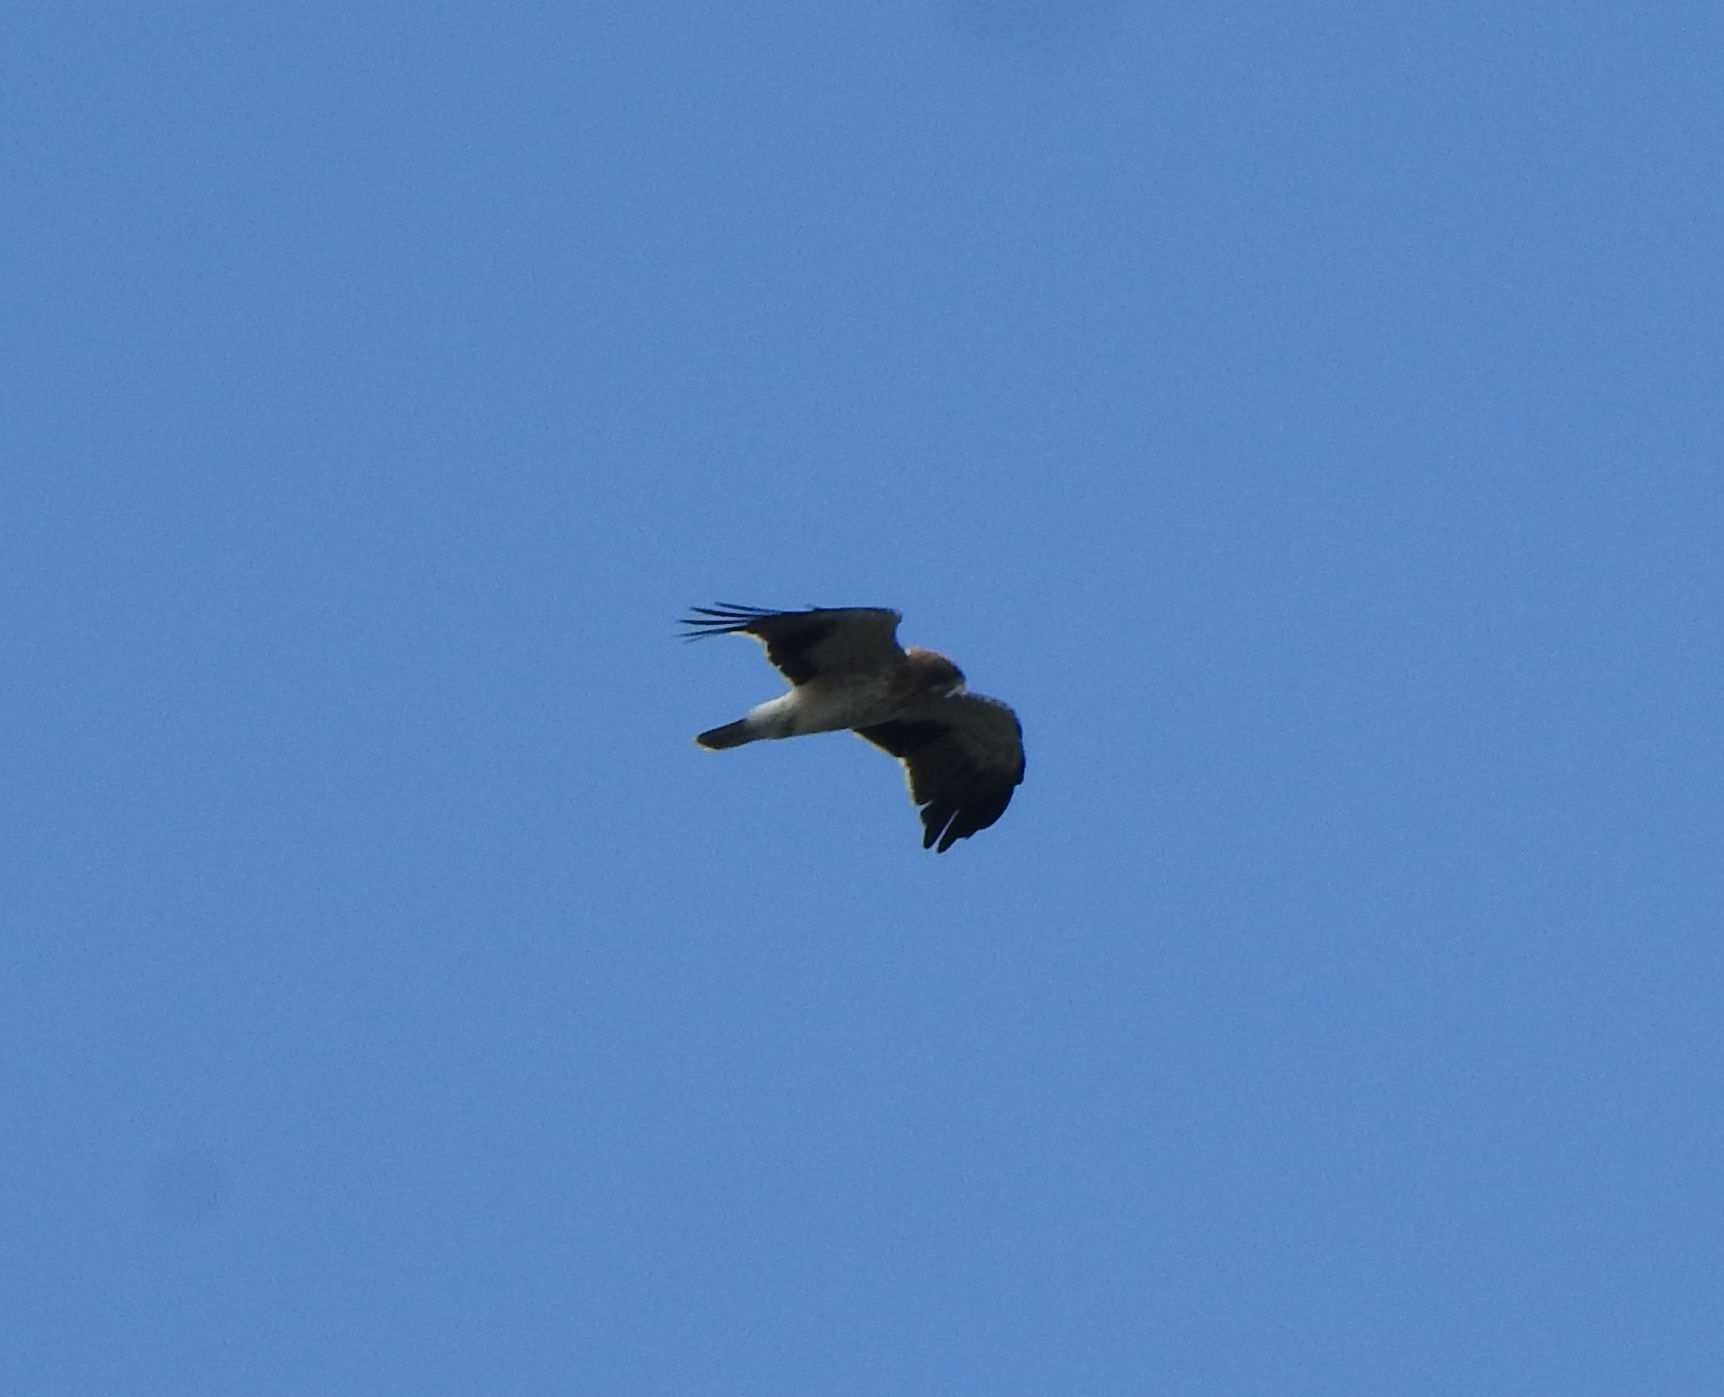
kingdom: Animalia
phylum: Chordata
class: Aves
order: Accipitriformes
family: Accipitridae
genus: Hieraaetus
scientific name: Hieraaetus pennatus
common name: Booted eagle
